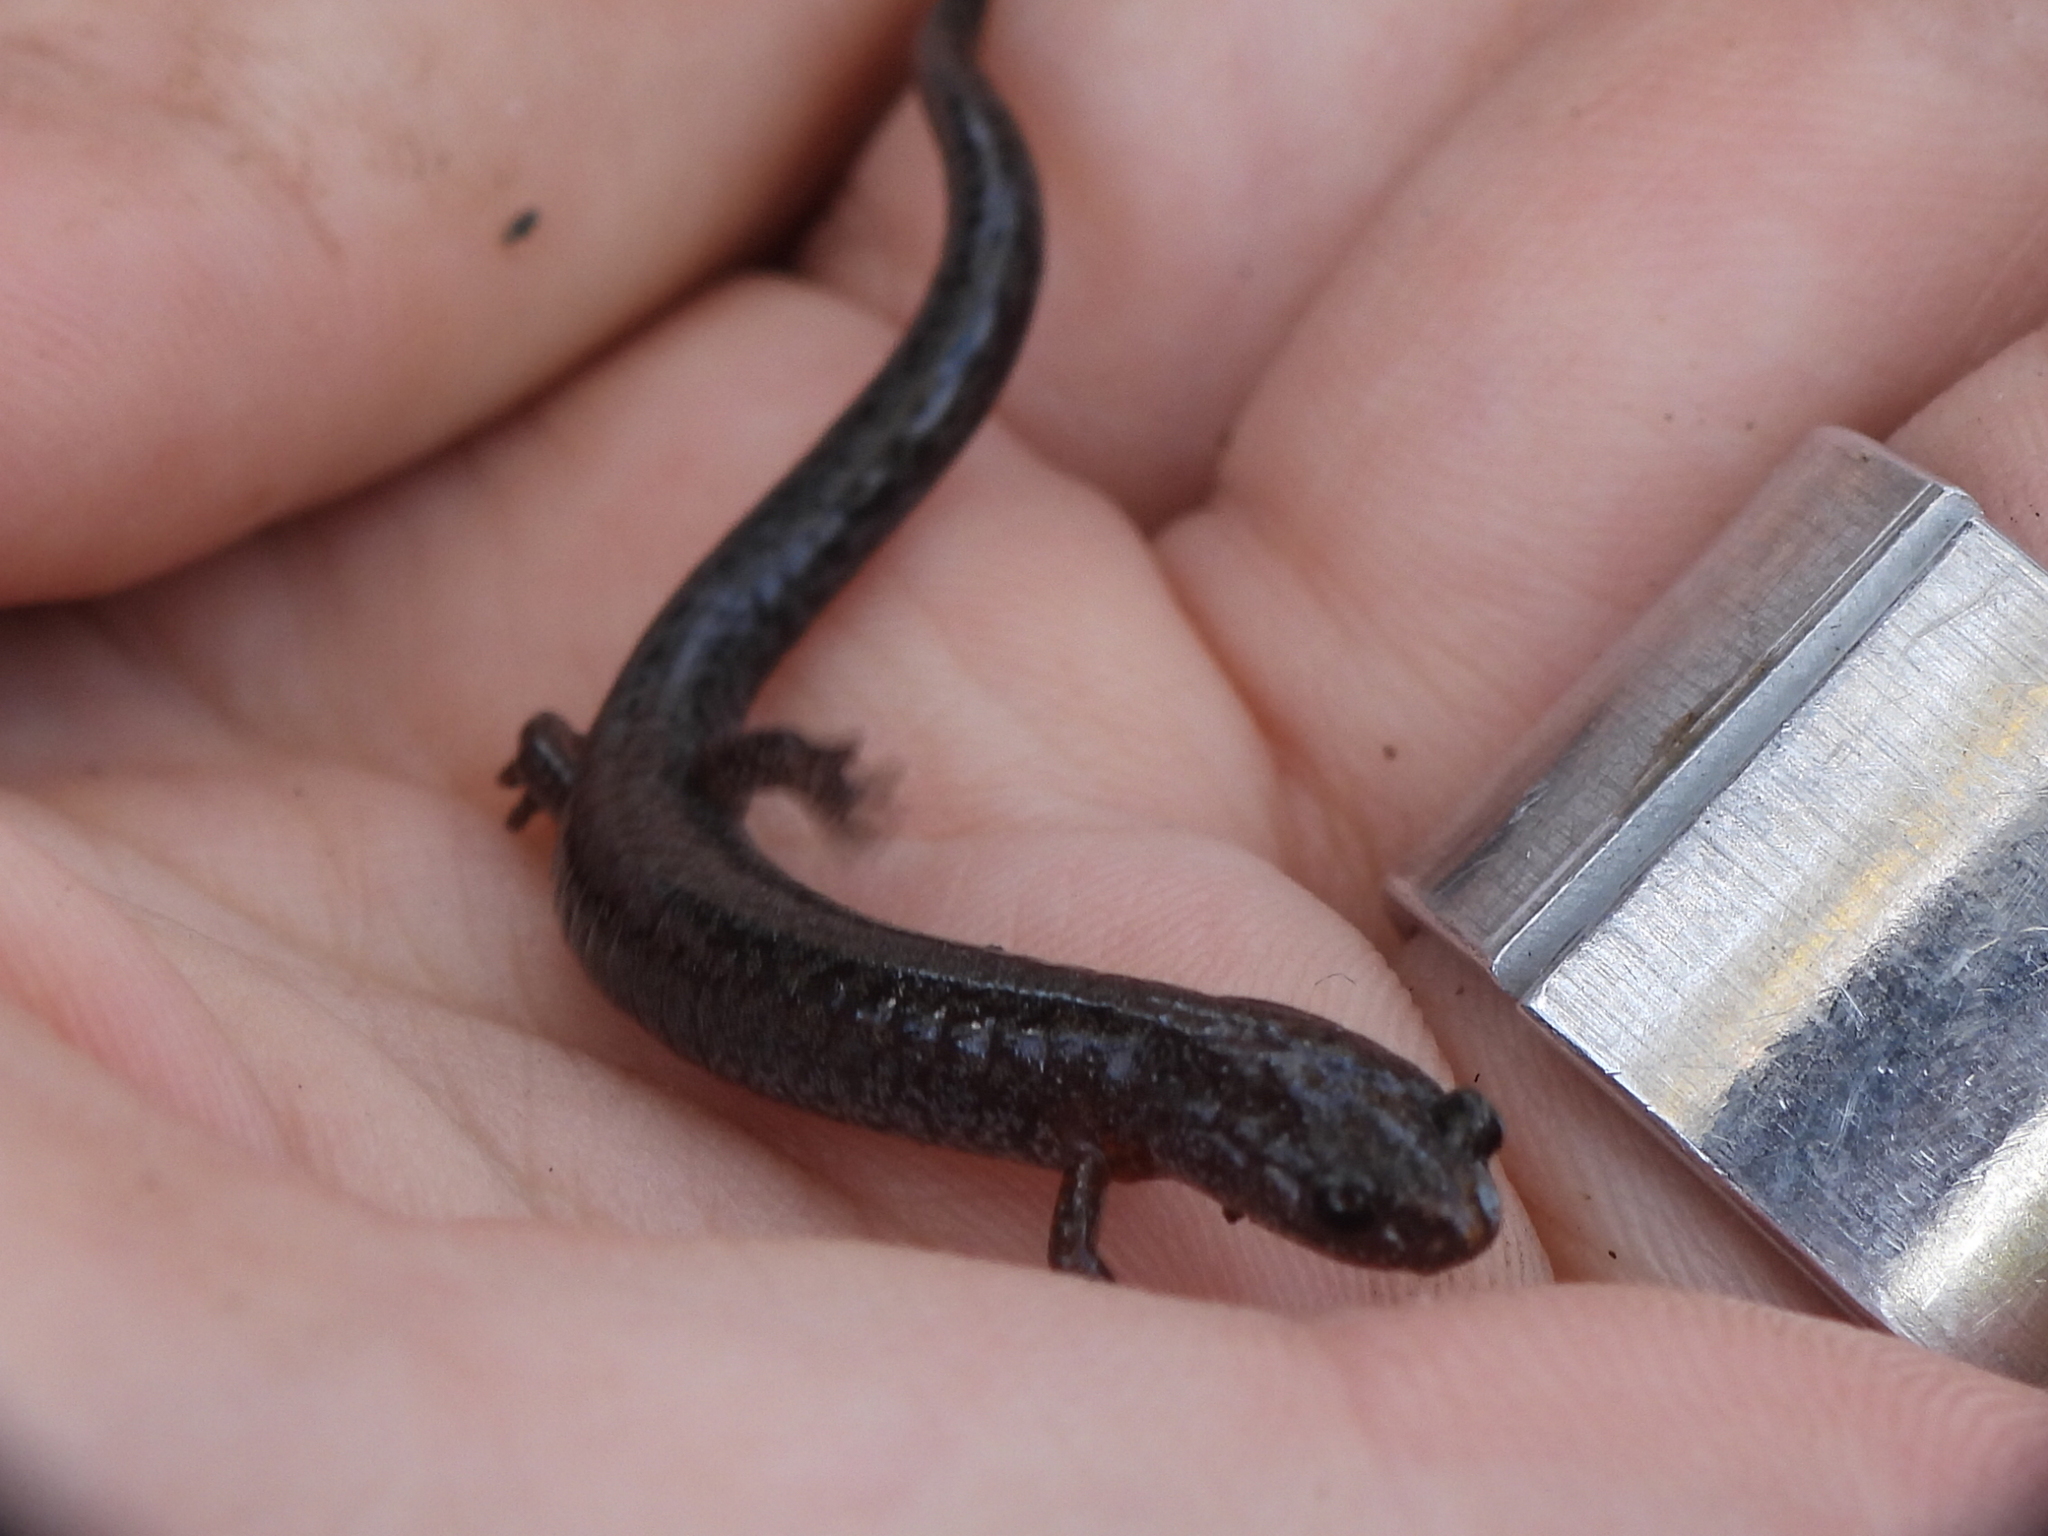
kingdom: Animalia
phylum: Chordata
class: Amphibia
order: Caudata
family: Plethodontidae
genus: Plethodon
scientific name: Plethodon dorsalis
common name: Northern zigzag salamander
